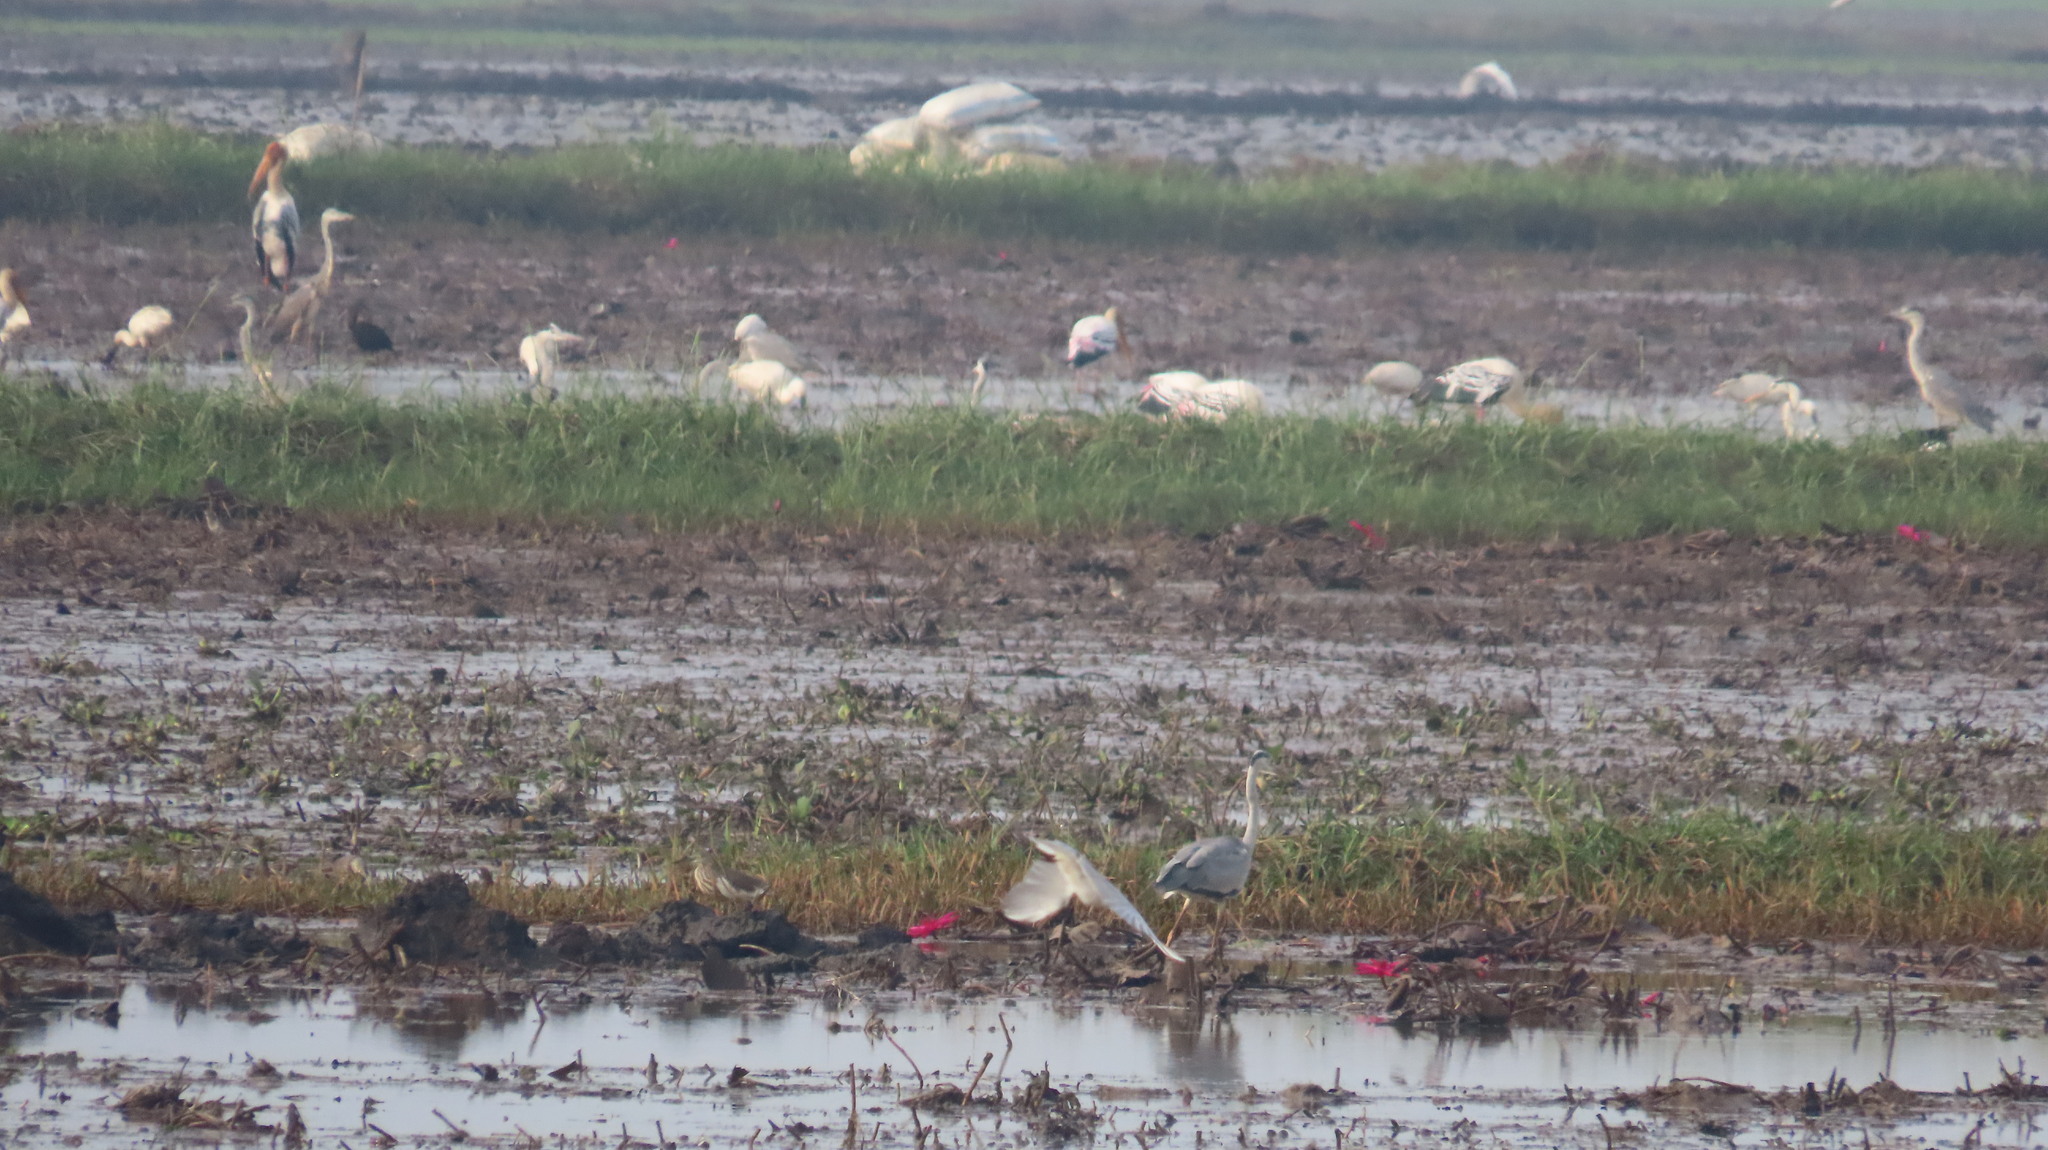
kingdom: Animalia
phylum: Chordata
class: Aves
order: Ciconiiformes
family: Ciconiidae
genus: Mycteria
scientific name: Mycteria leucocephala
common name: Painted stork
